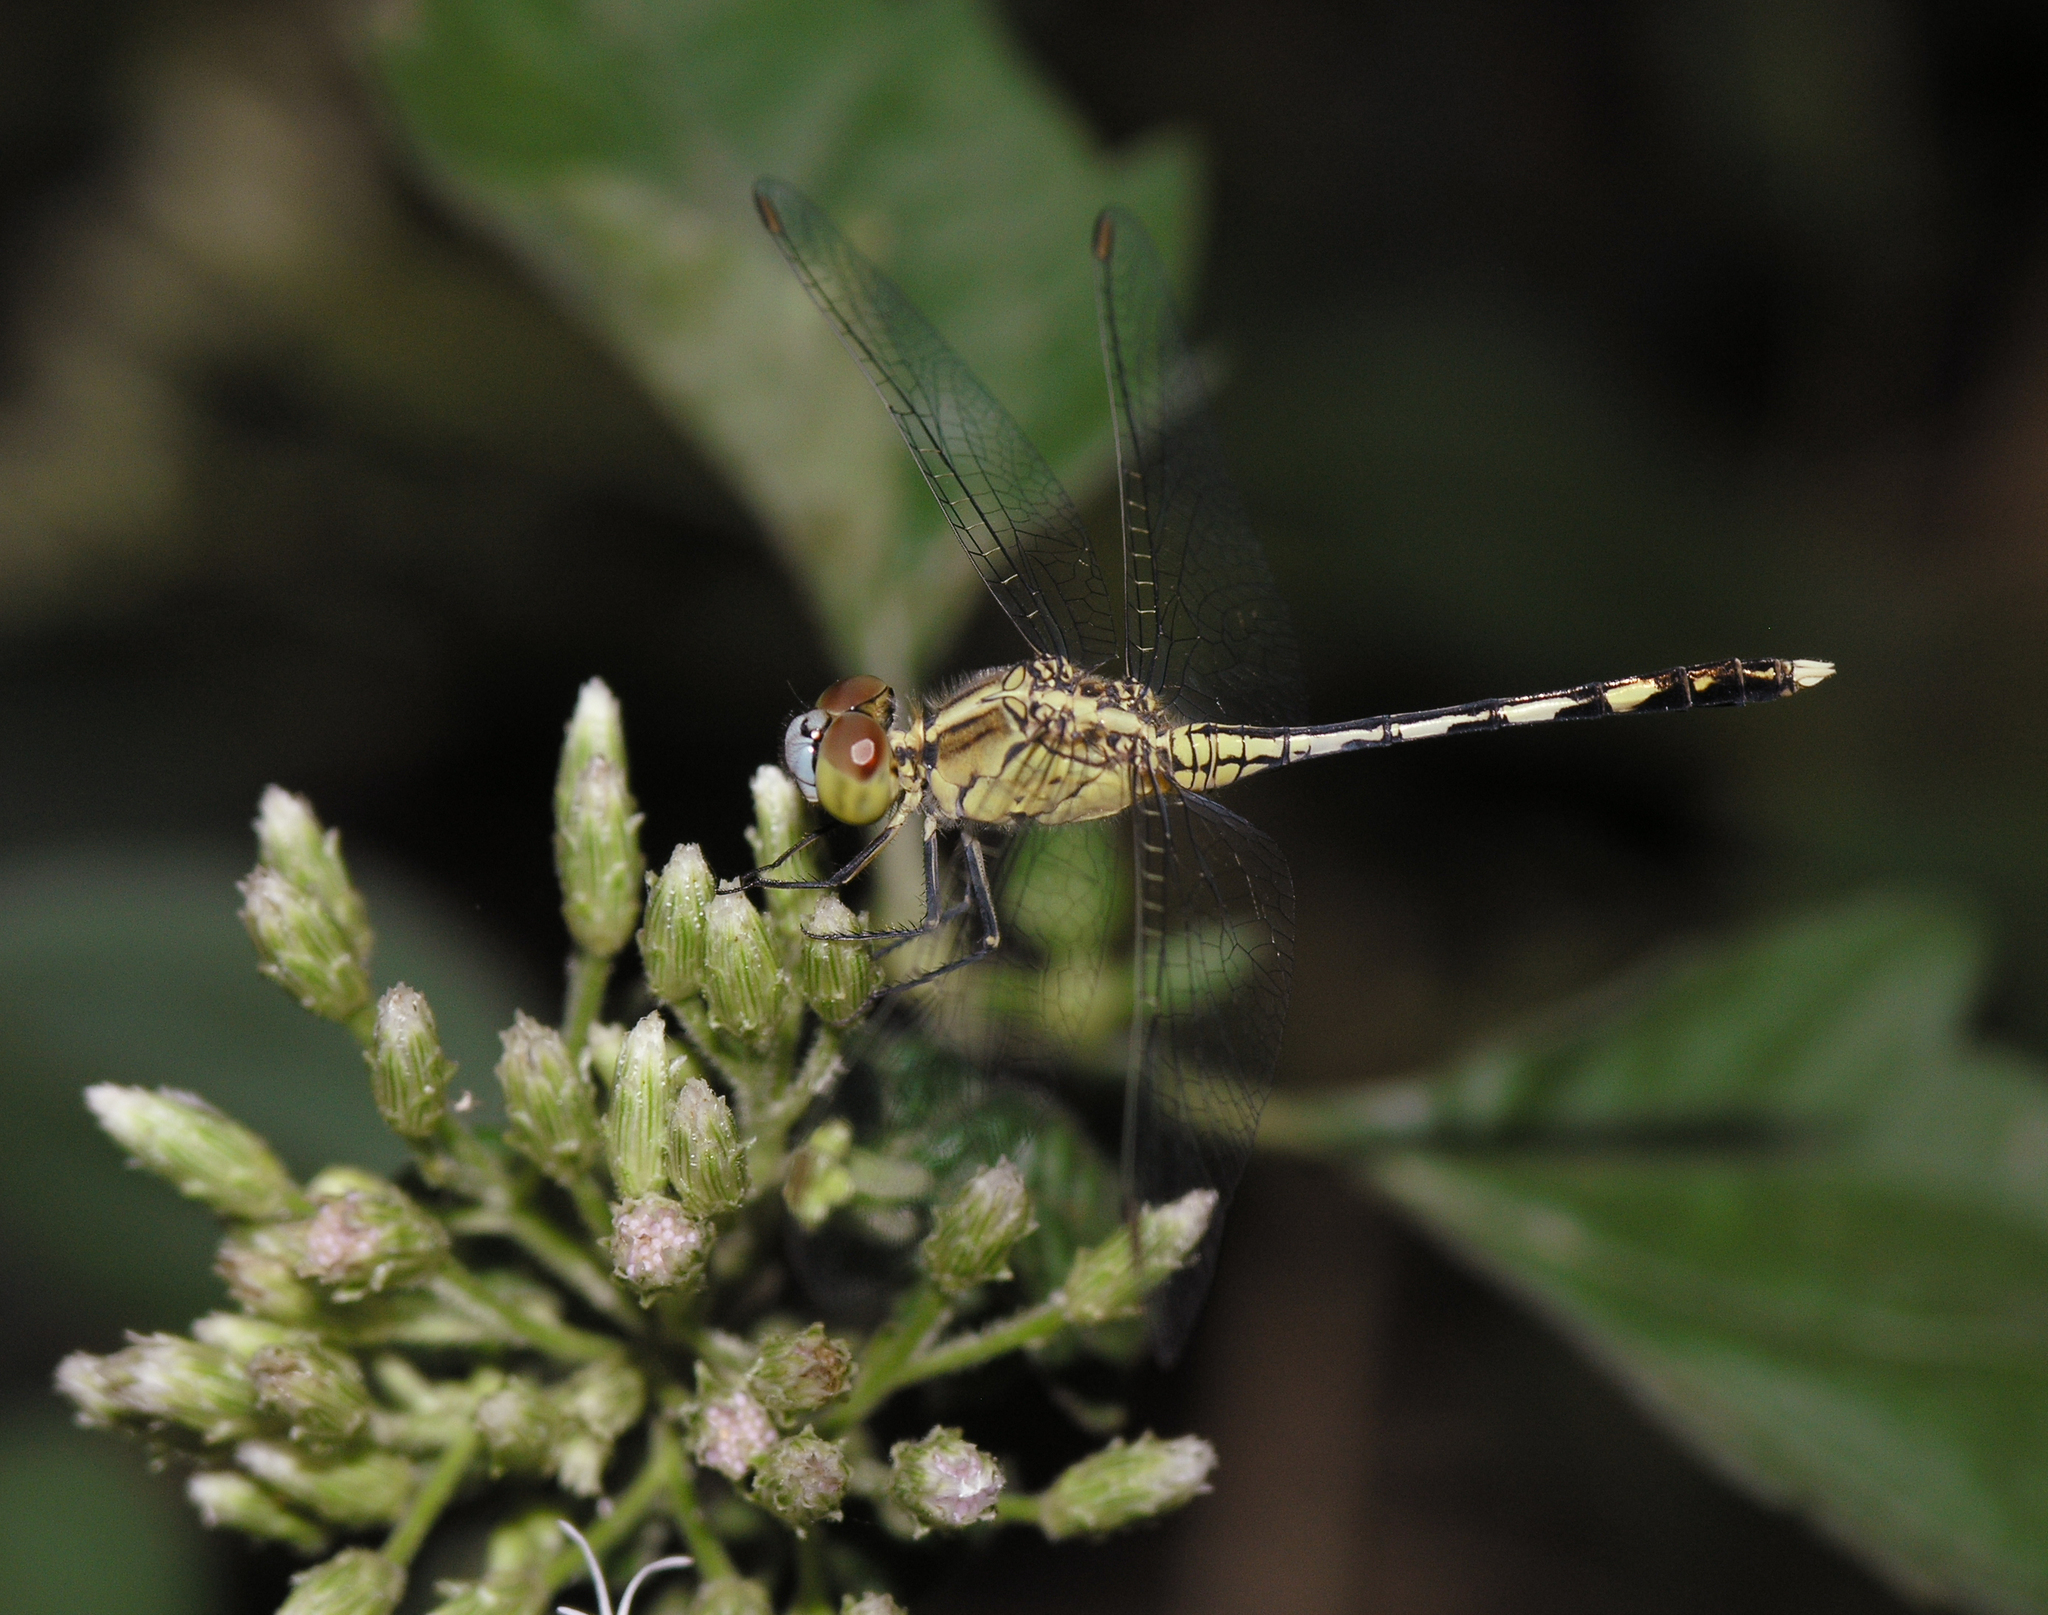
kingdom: Animalia
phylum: Arthropoda
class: Insecta
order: Odonata
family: Libellulidae
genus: Diplacodes
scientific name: Diplacodes trivialis
